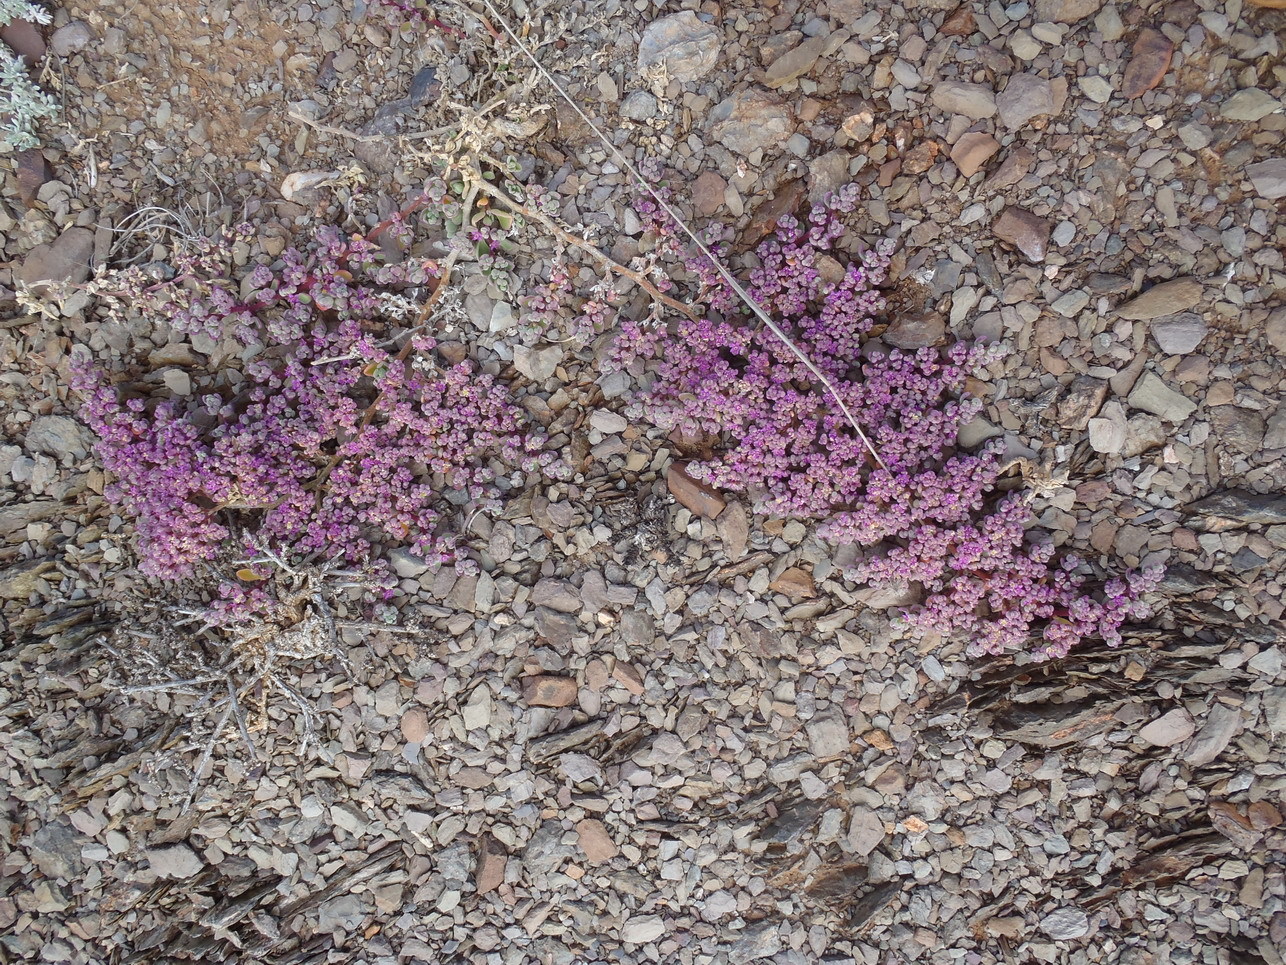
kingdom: Plantae
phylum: Tracheophyta
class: Magnoliopsida
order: Caryophyllales
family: Aizoaceae
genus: Aizoon
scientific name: Aizoon sarcophyllum
